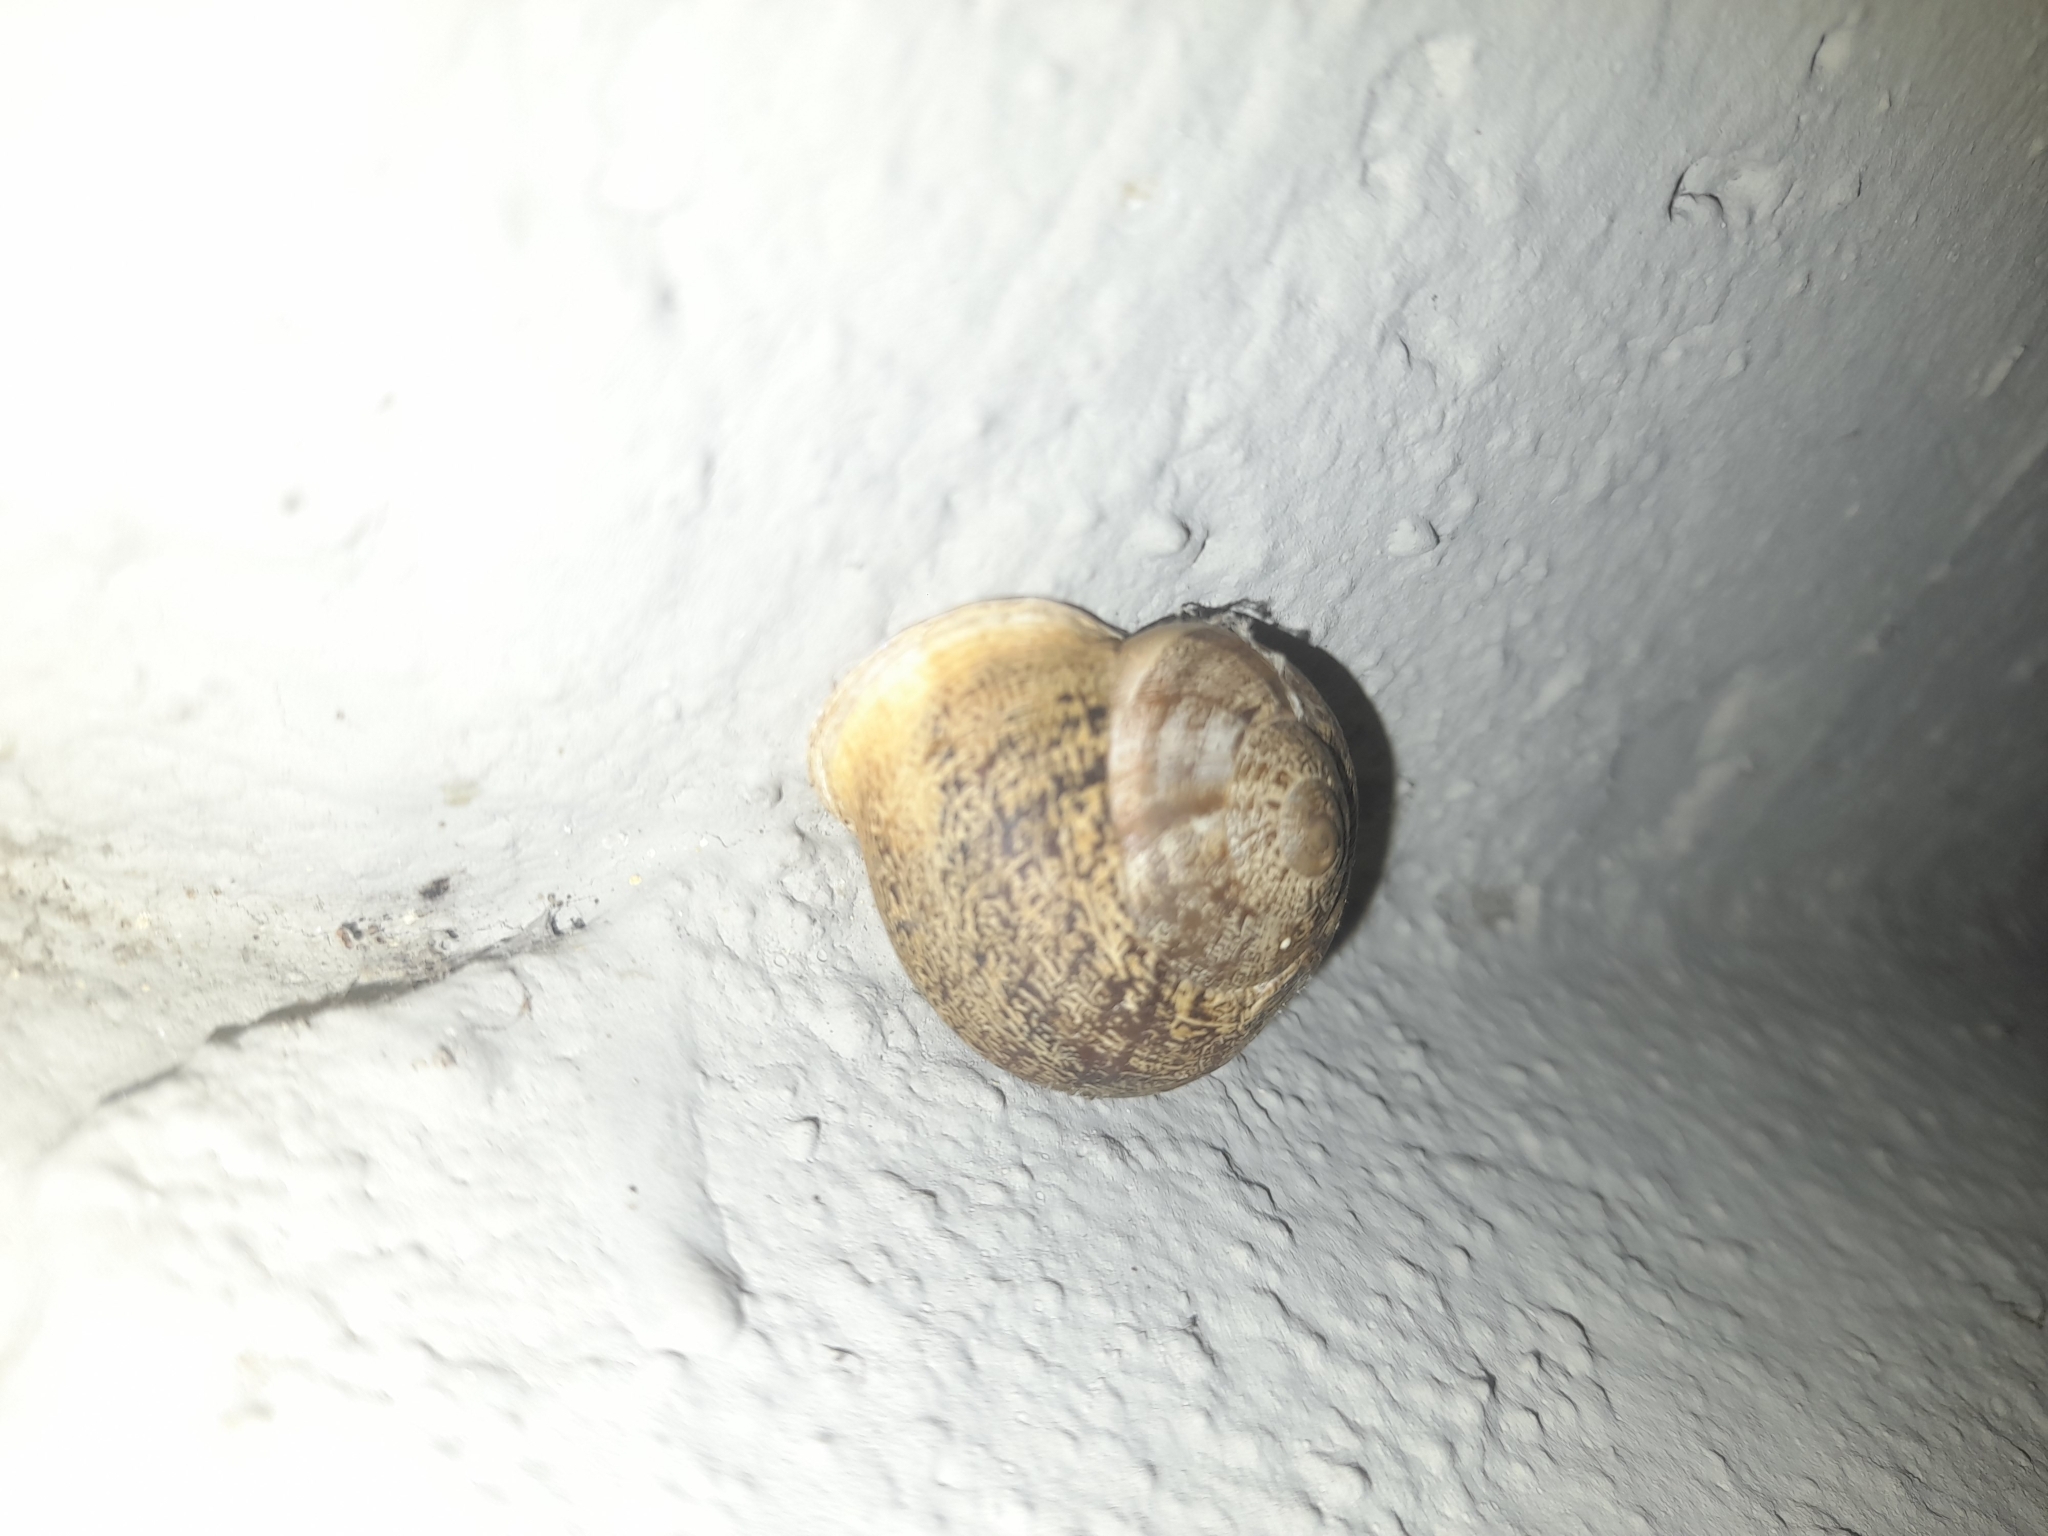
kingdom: Animalia
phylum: Mollusca
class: Gastropoda
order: Stylommatophora
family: Helicidae
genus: Eobania
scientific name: Eobania vermiculata
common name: Chocolateband snail
